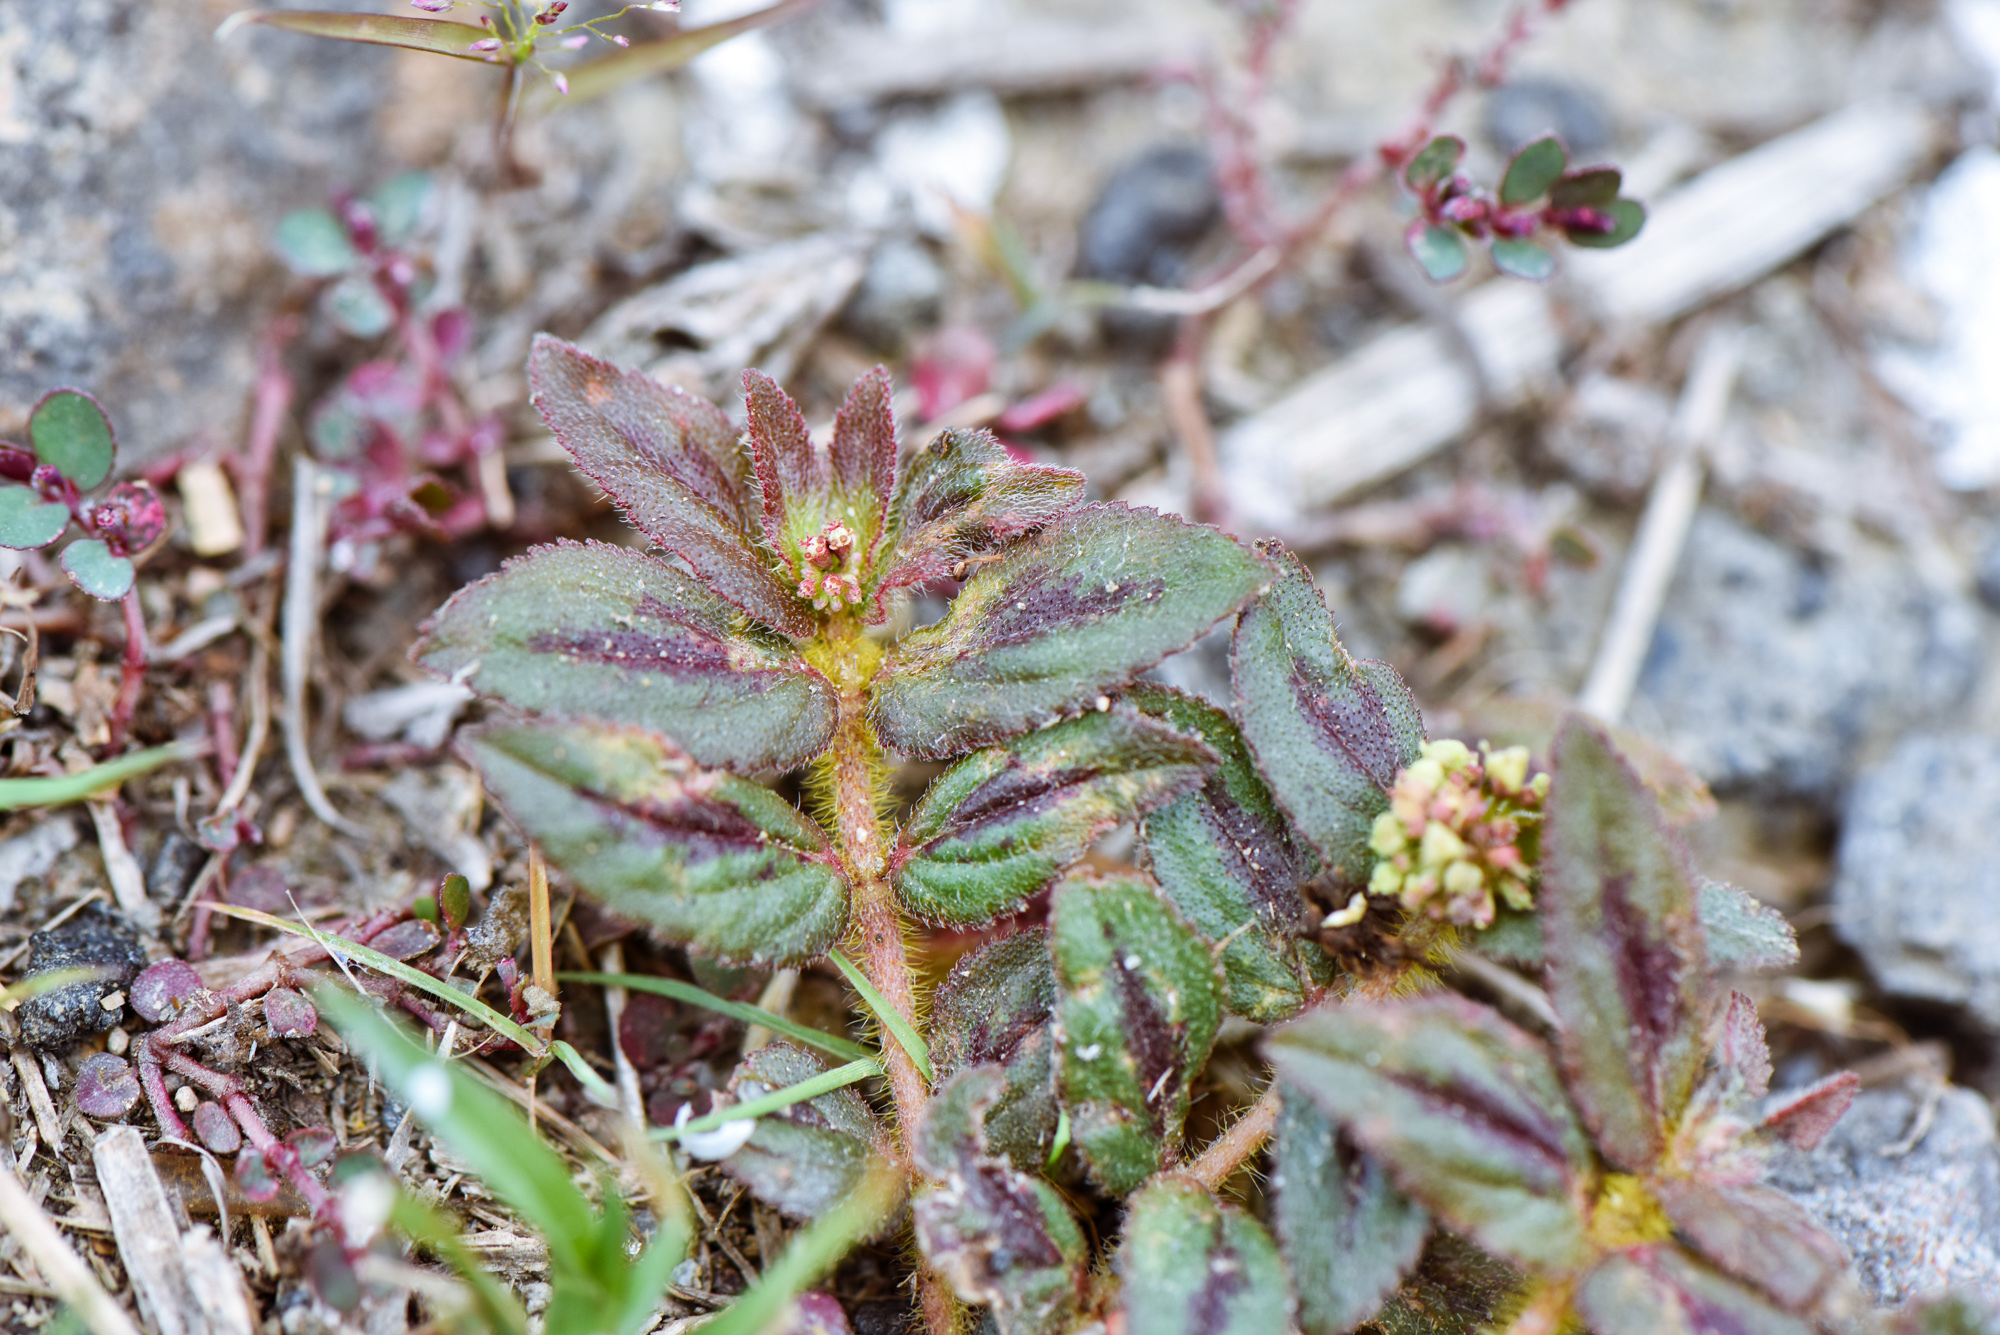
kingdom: Plantae
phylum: Tracheophyta
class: Magnoliopsida
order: Malpighiales
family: Euphorbiaceae
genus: Euphorbia
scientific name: Euphorbia hirta
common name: Pillpod sandmat
